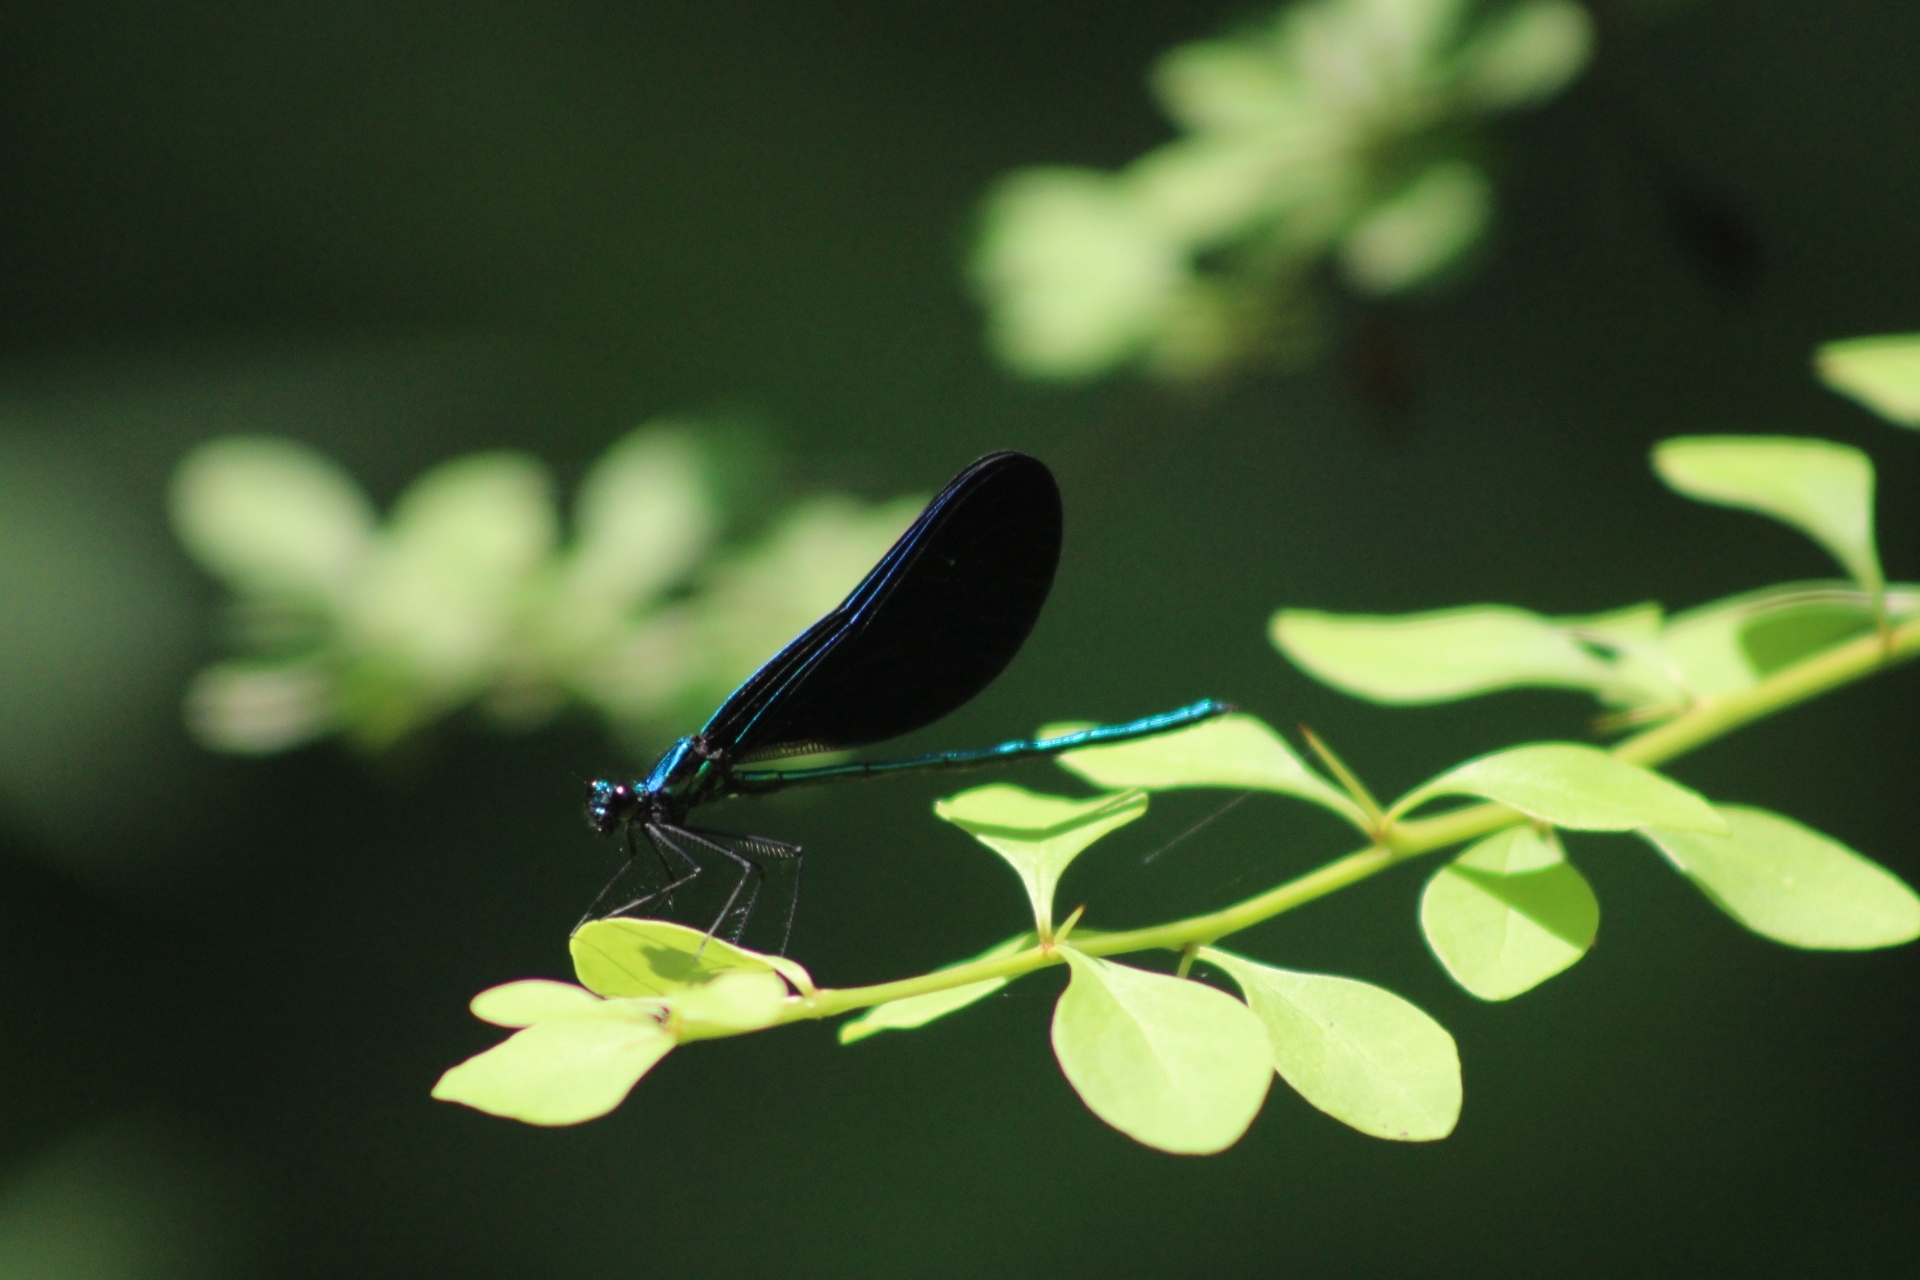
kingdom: Animalia
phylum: Arthropoda
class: Insecta
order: Odonata
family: Calopterygidae
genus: Calopteryx
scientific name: Calopteryx maculata
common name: Ebony jewelwing
